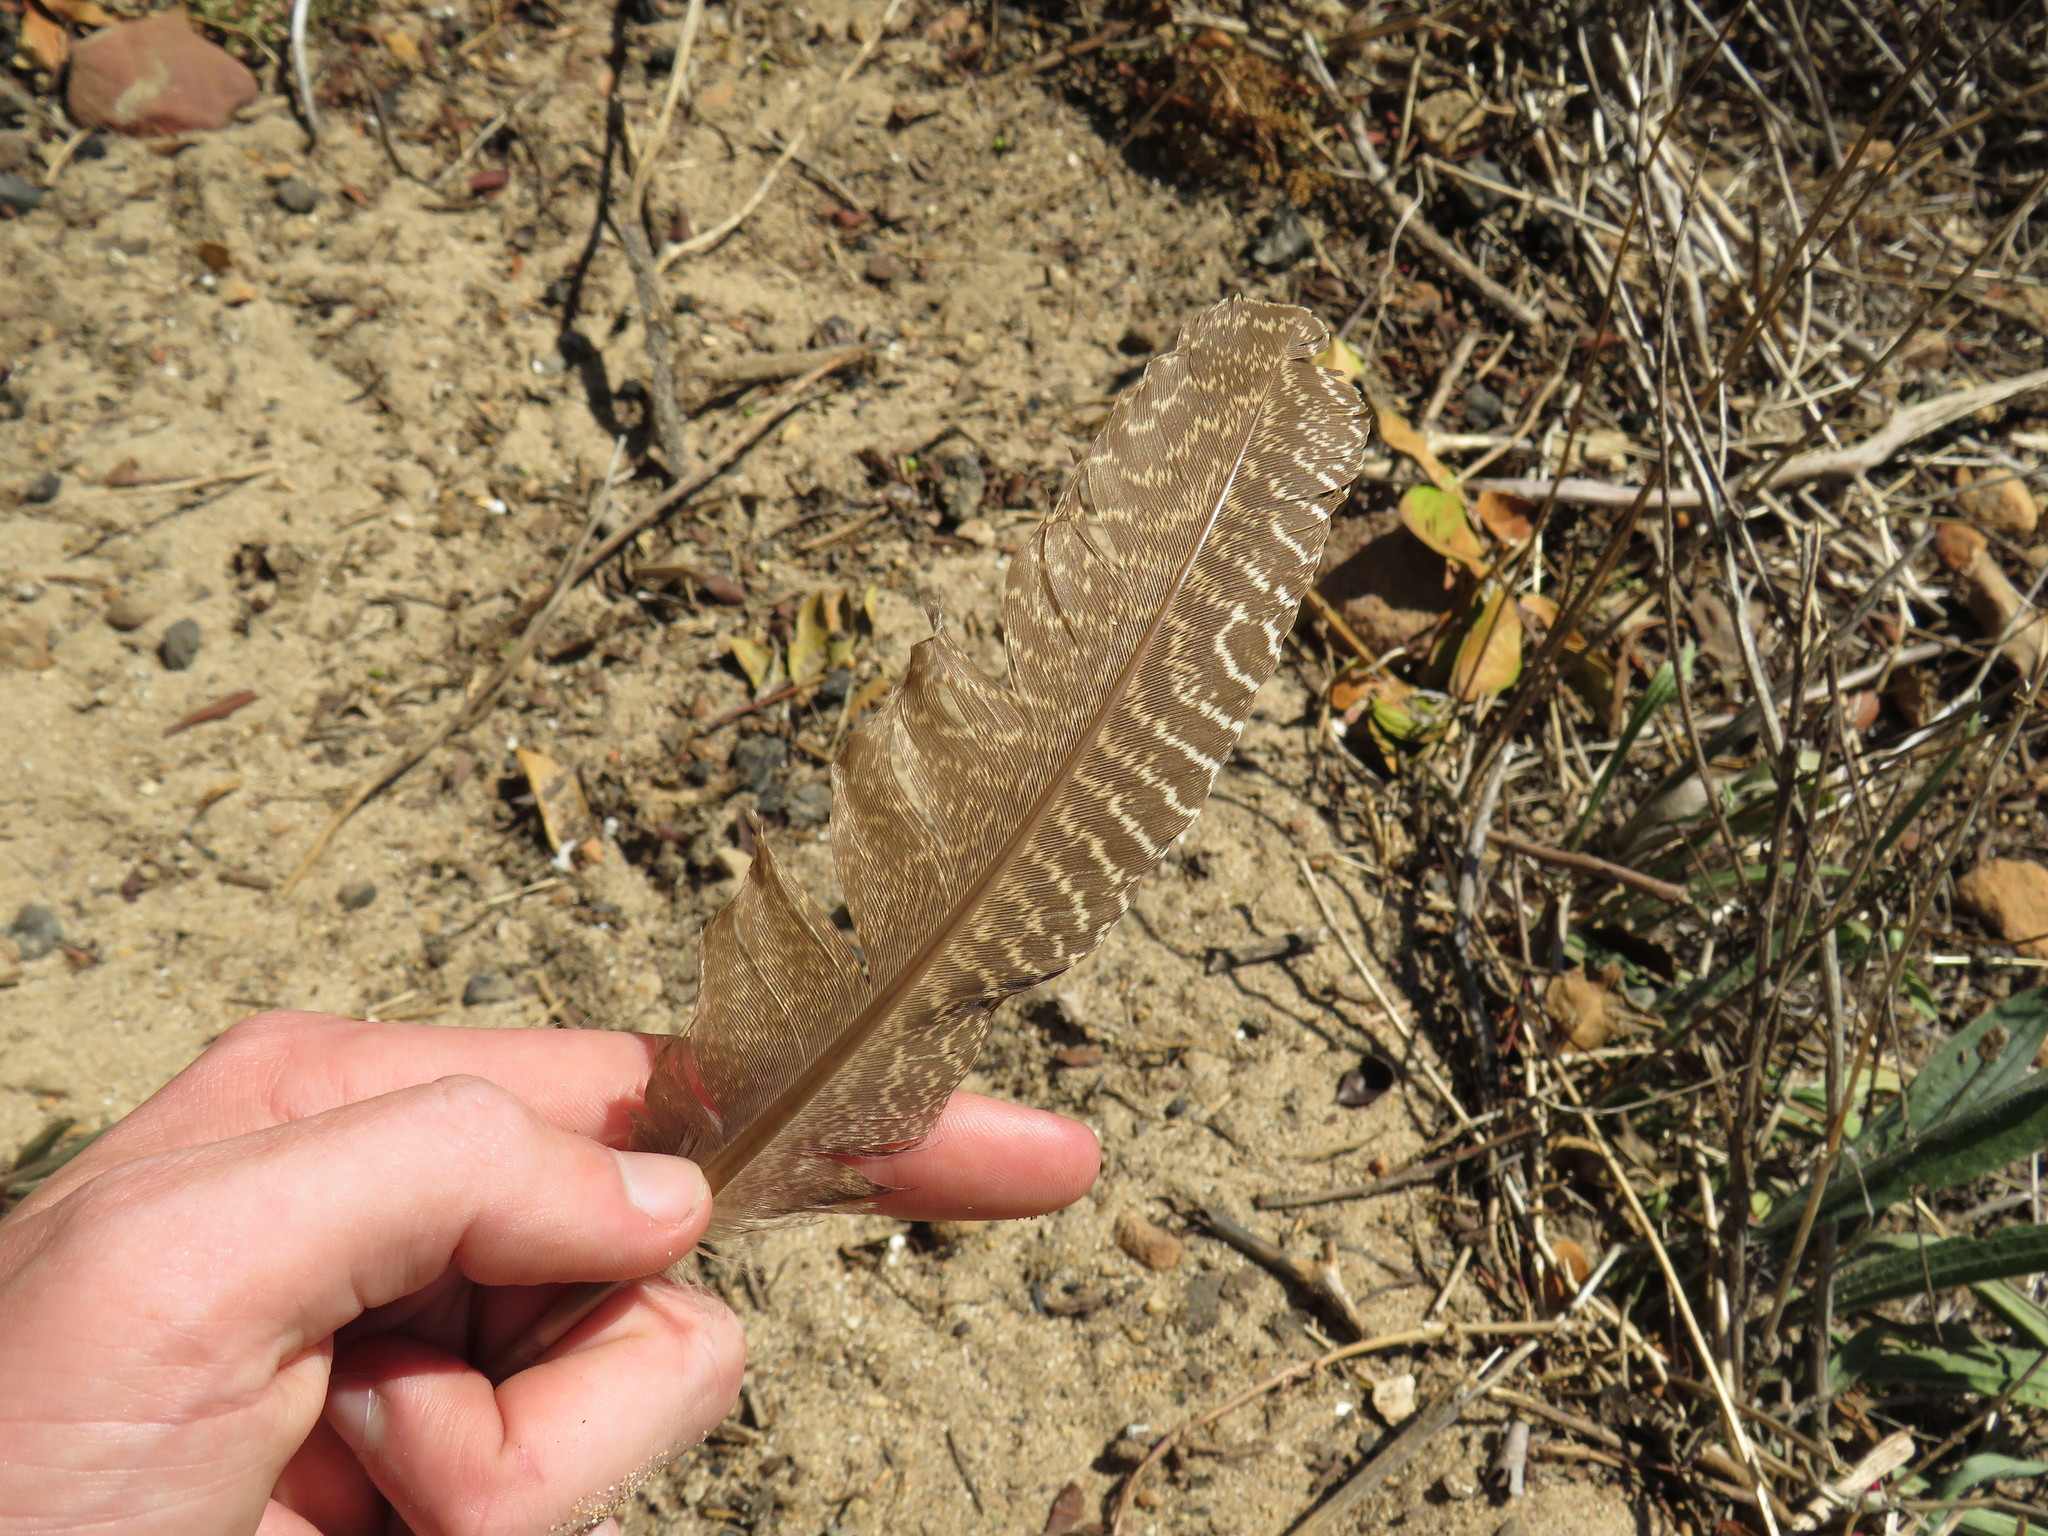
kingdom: Animalia
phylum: Chordata
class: Aves
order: Galliformes
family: Phasianidae
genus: Pternistis
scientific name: Pternistis capensis
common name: Cape spurfowl
